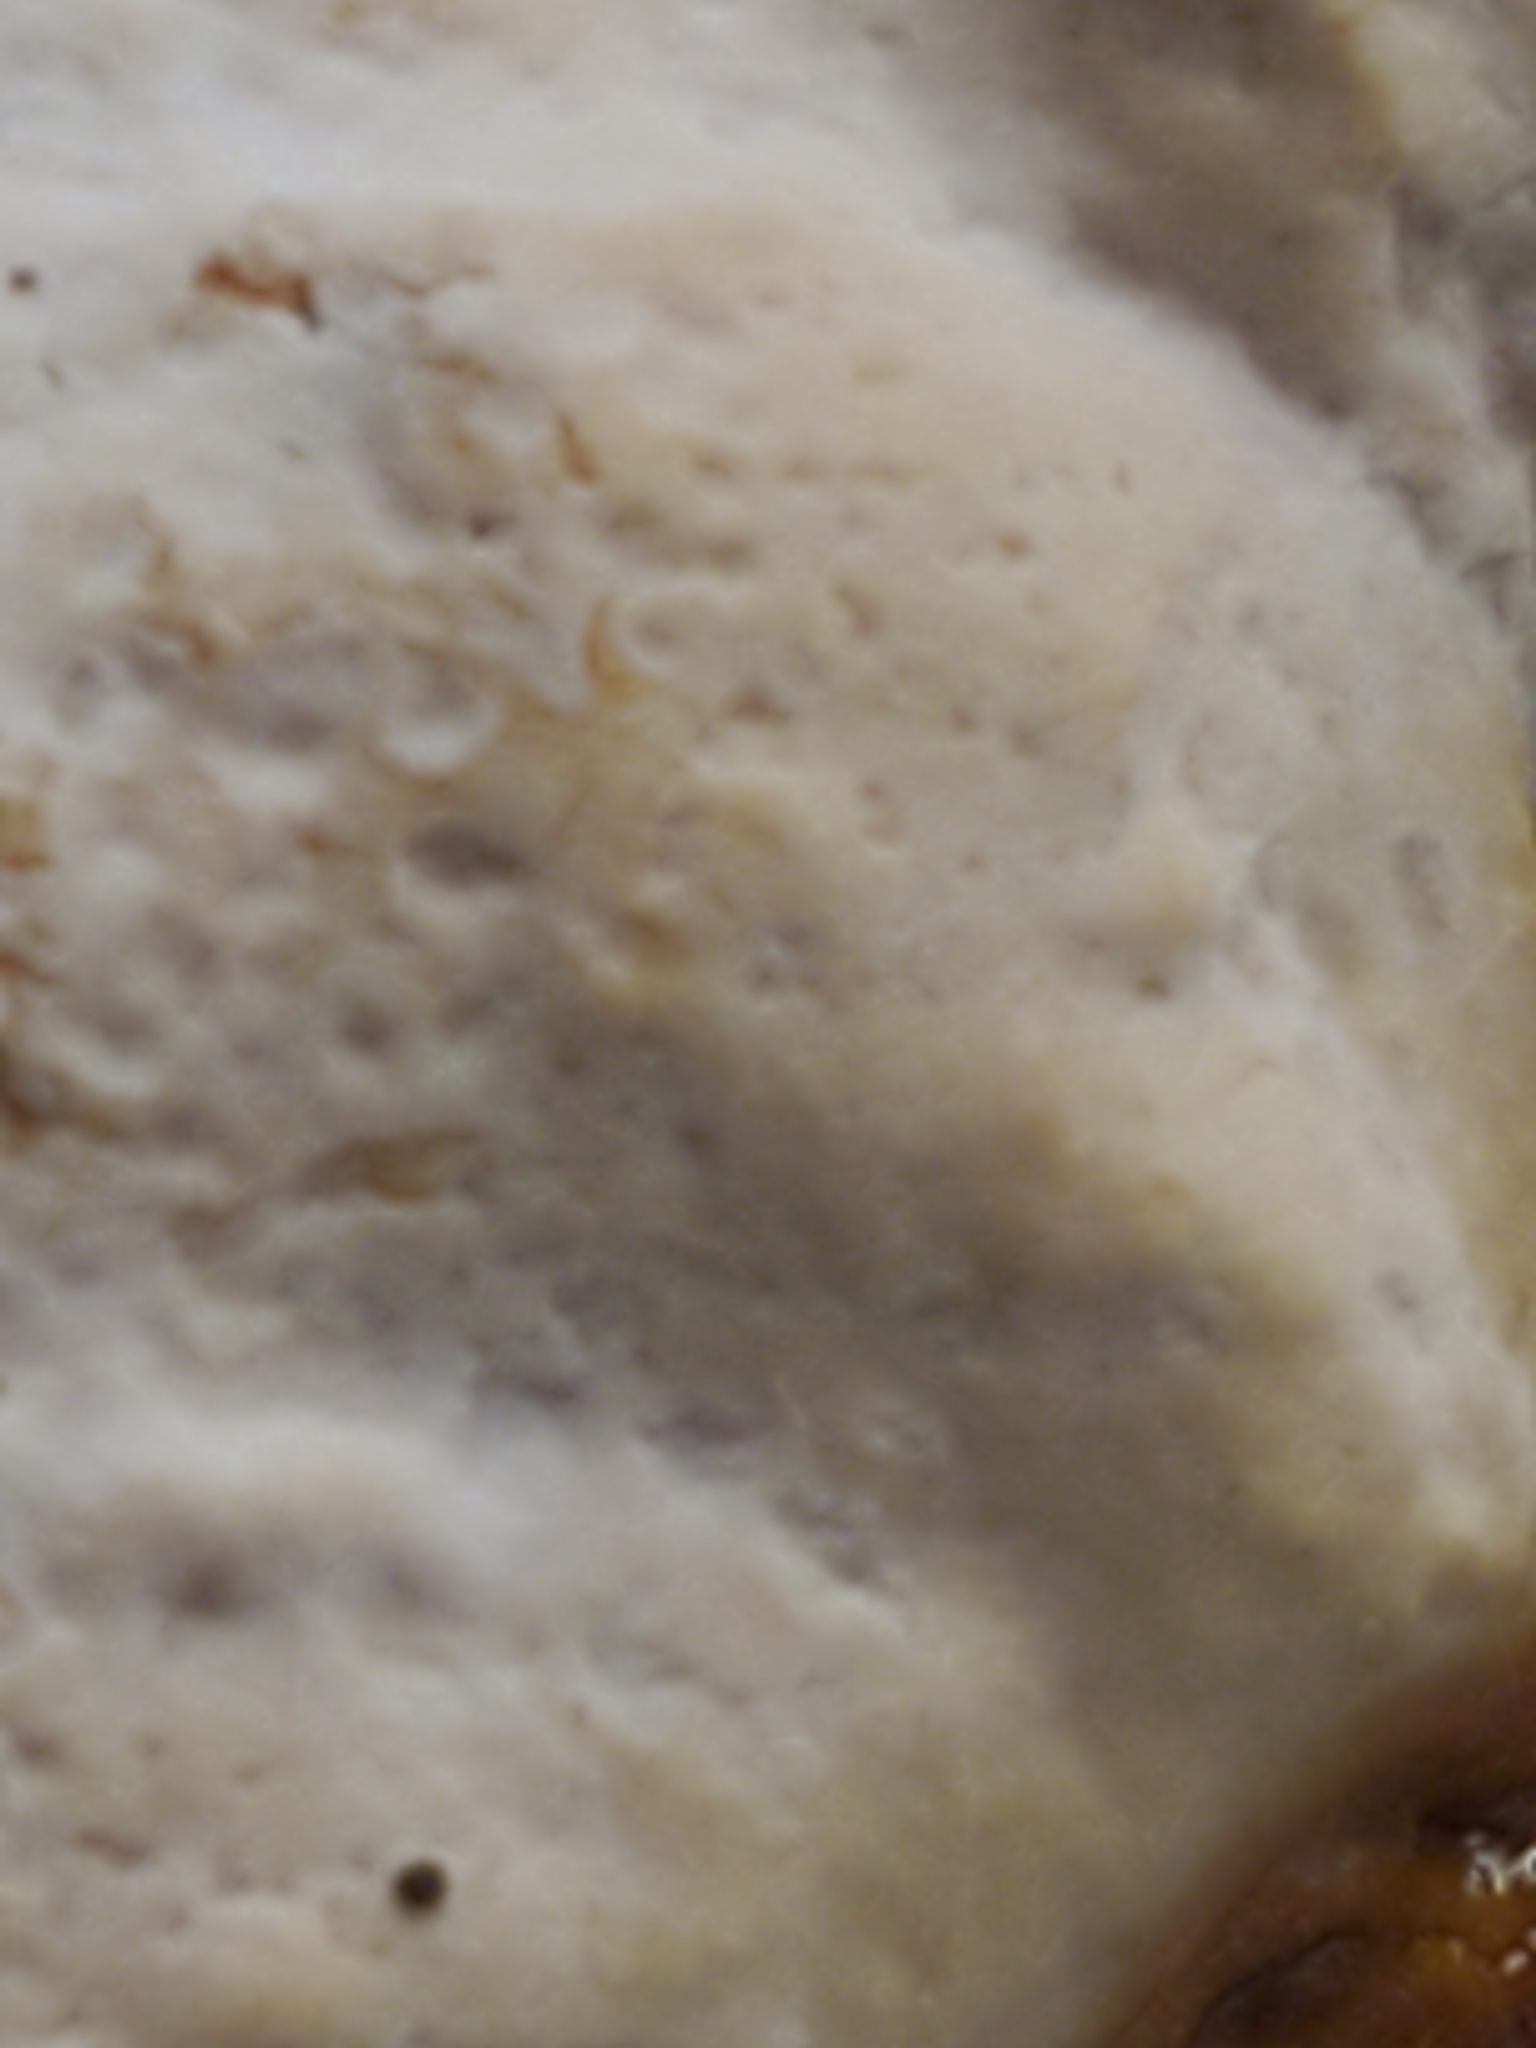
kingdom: Fungi
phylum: Basidiomycota
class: Agaricomycetes
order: Polyporales
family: Polyporaceae
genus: Ganoderma
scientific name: Ganoderma curtisii
